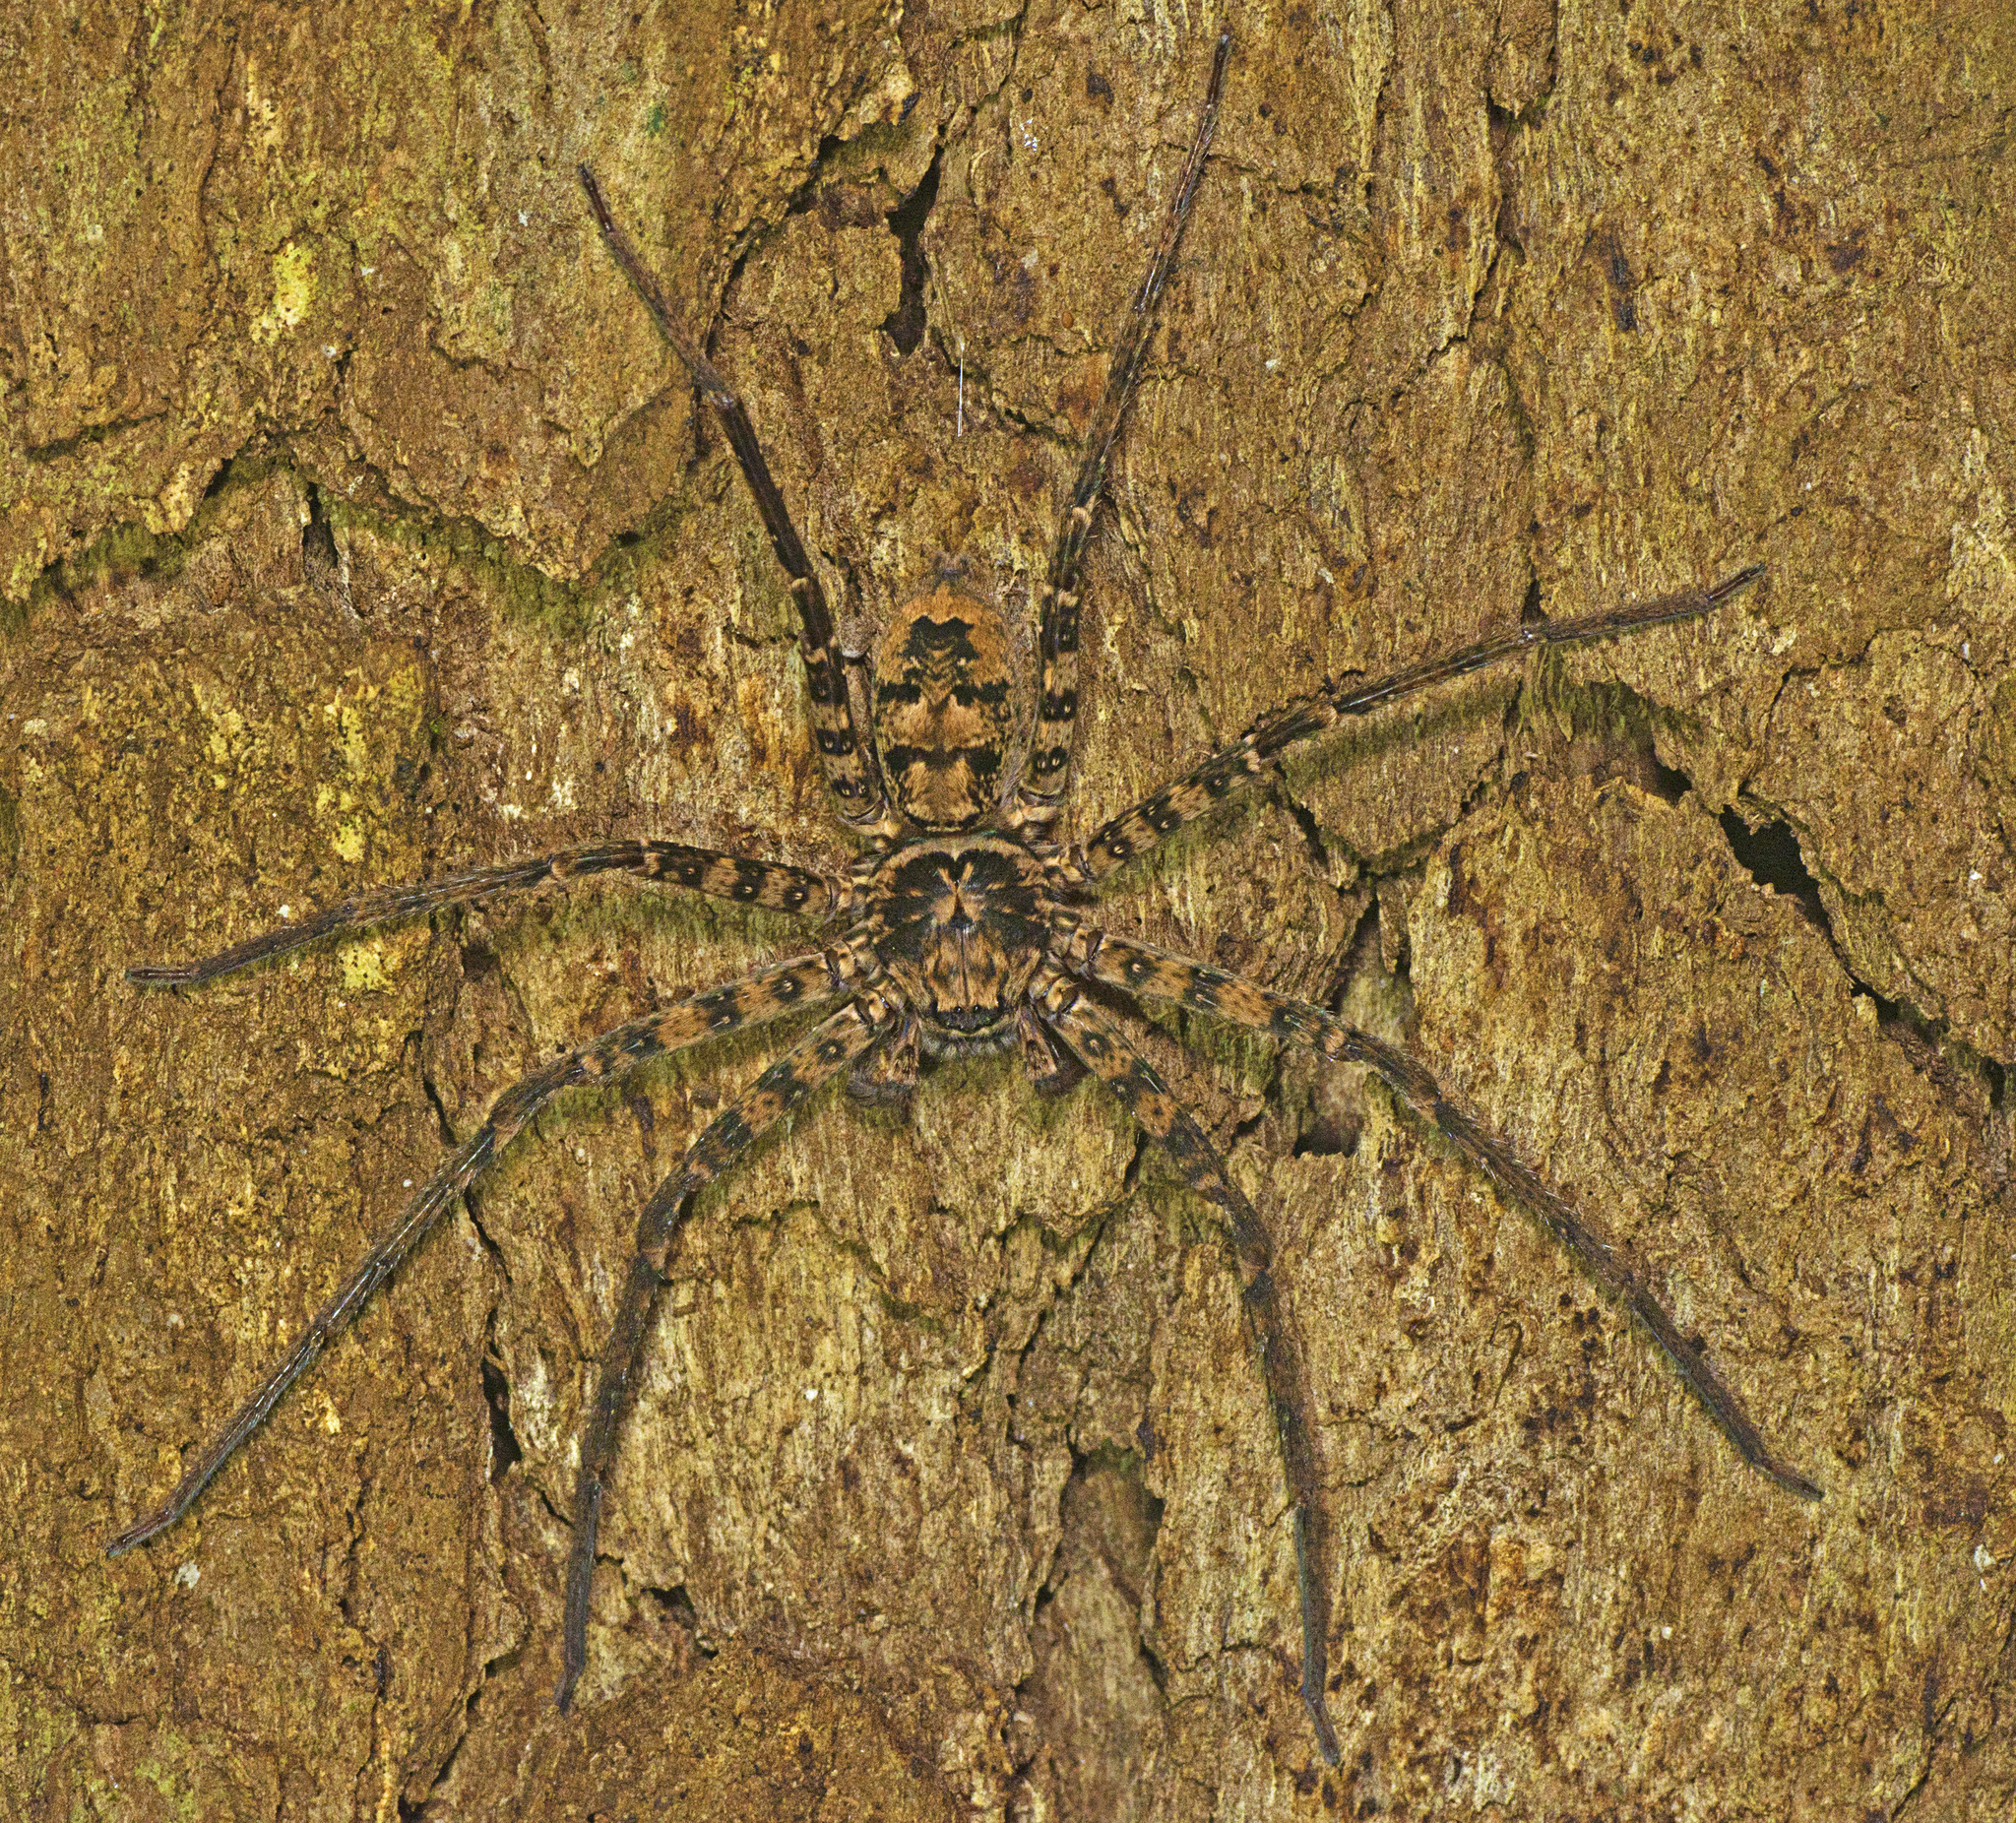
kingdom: Animalia
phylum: Arthropoda
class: Arachnida
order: Araneae
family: Sparassidae
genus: Heteropoda
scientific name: Heteropoda procera
